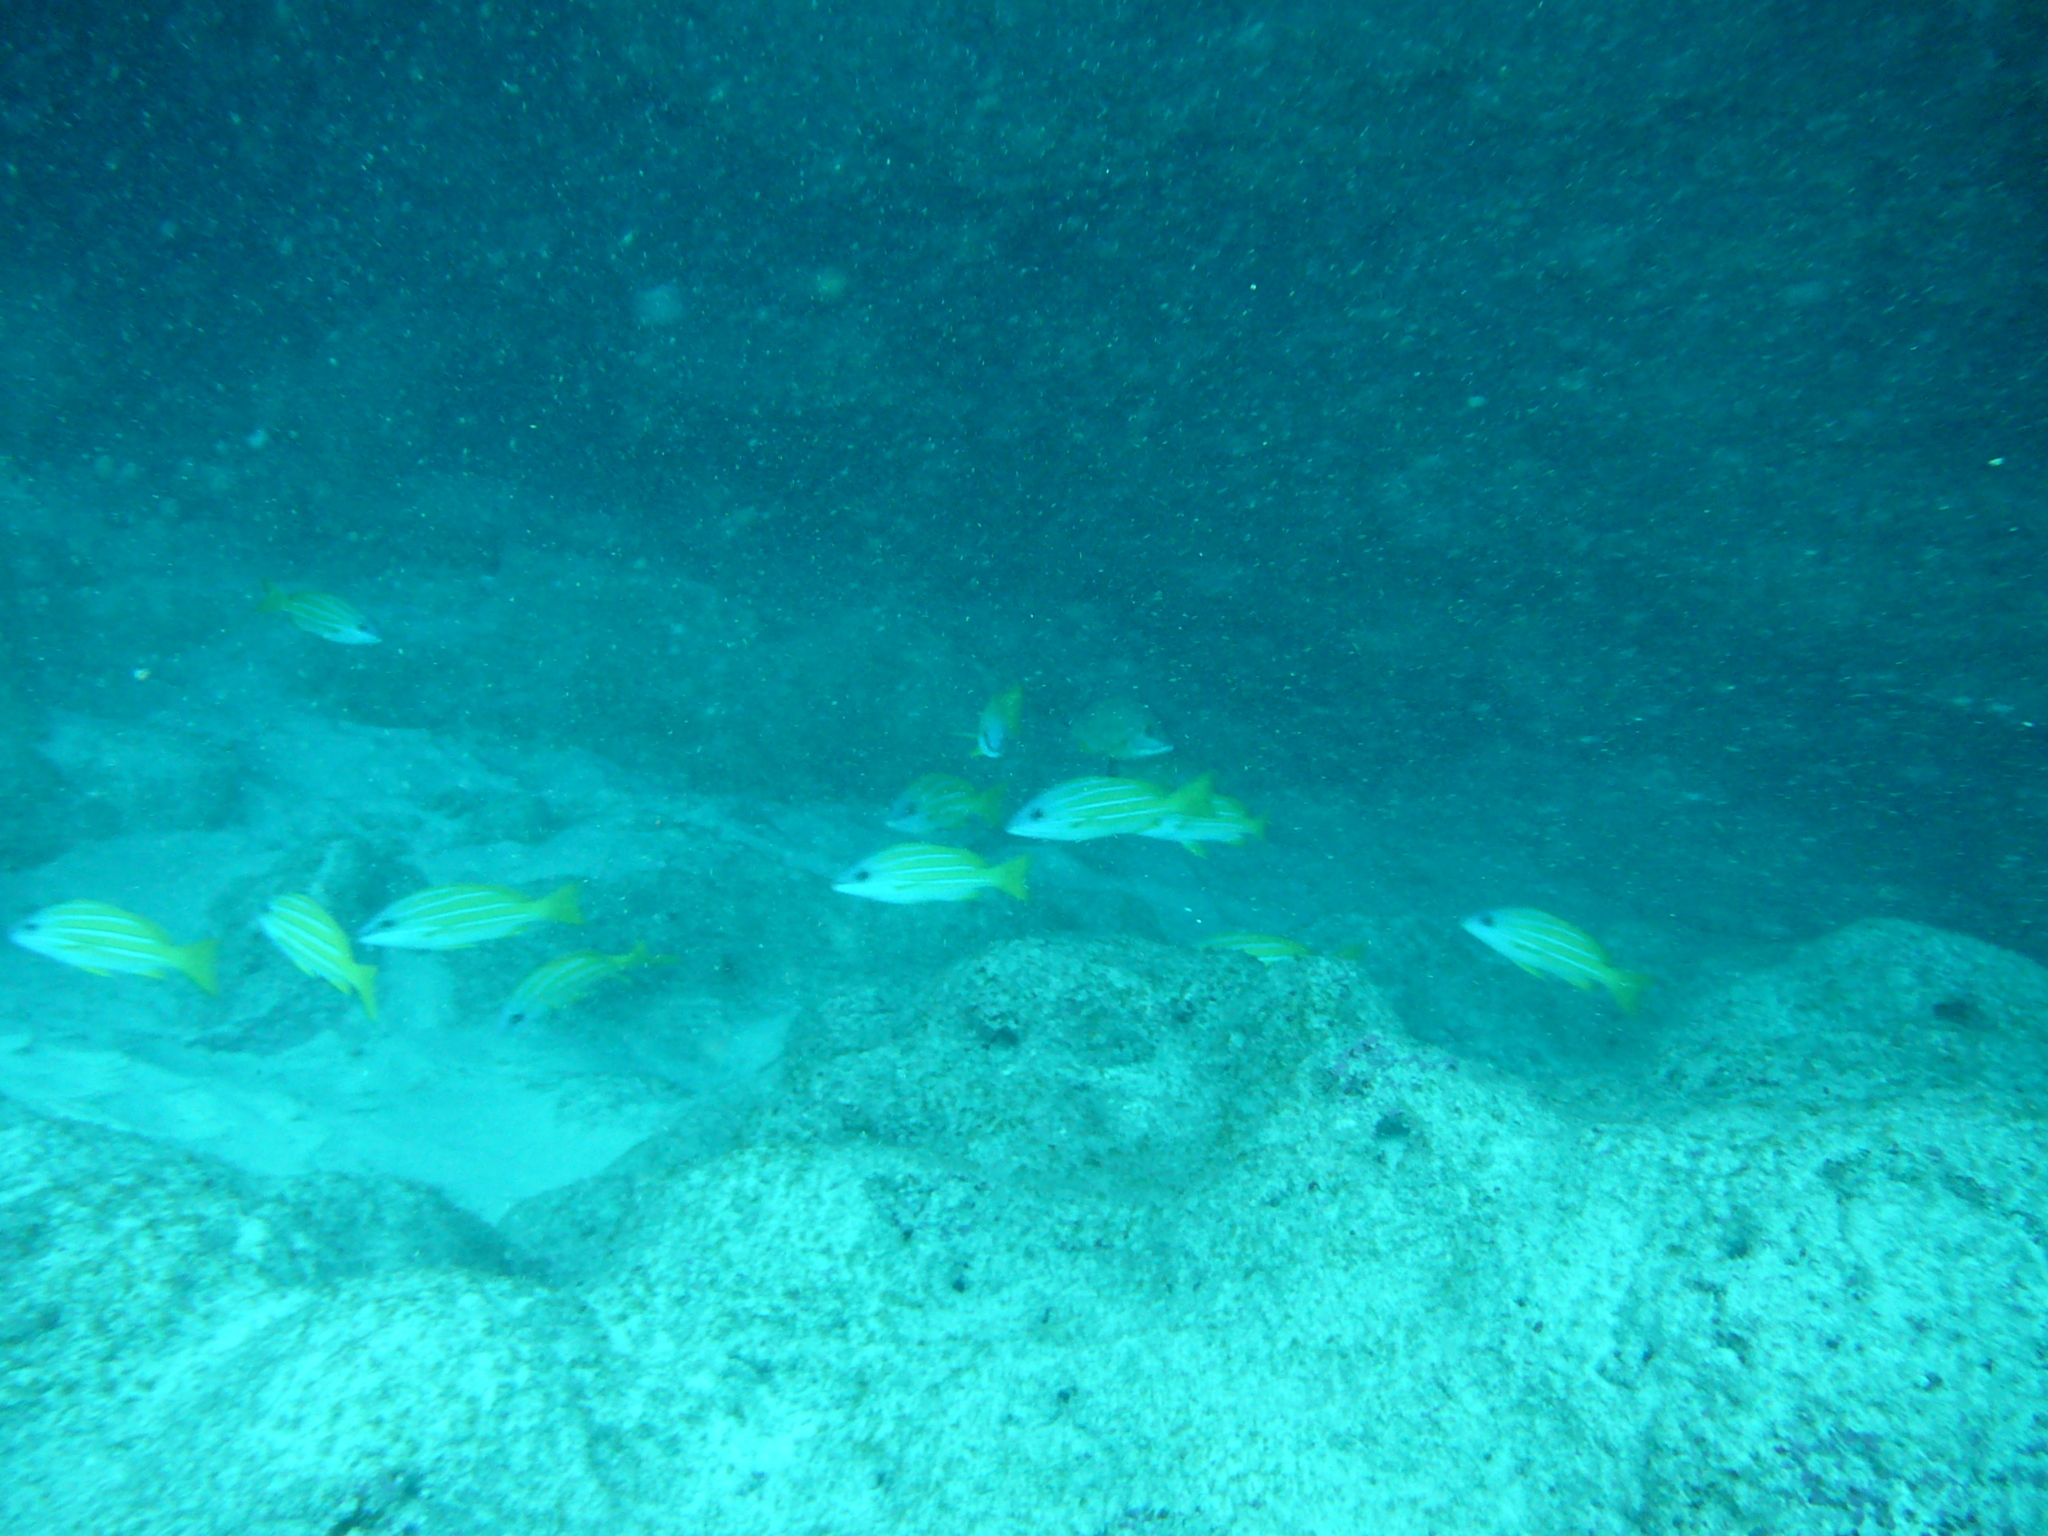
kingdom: Animalia
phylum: Chordata
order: Perciformes
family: Lutjanidae
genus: Lutjanus
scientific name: Lutjanus kasmira
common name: Common bluestripe snapper
